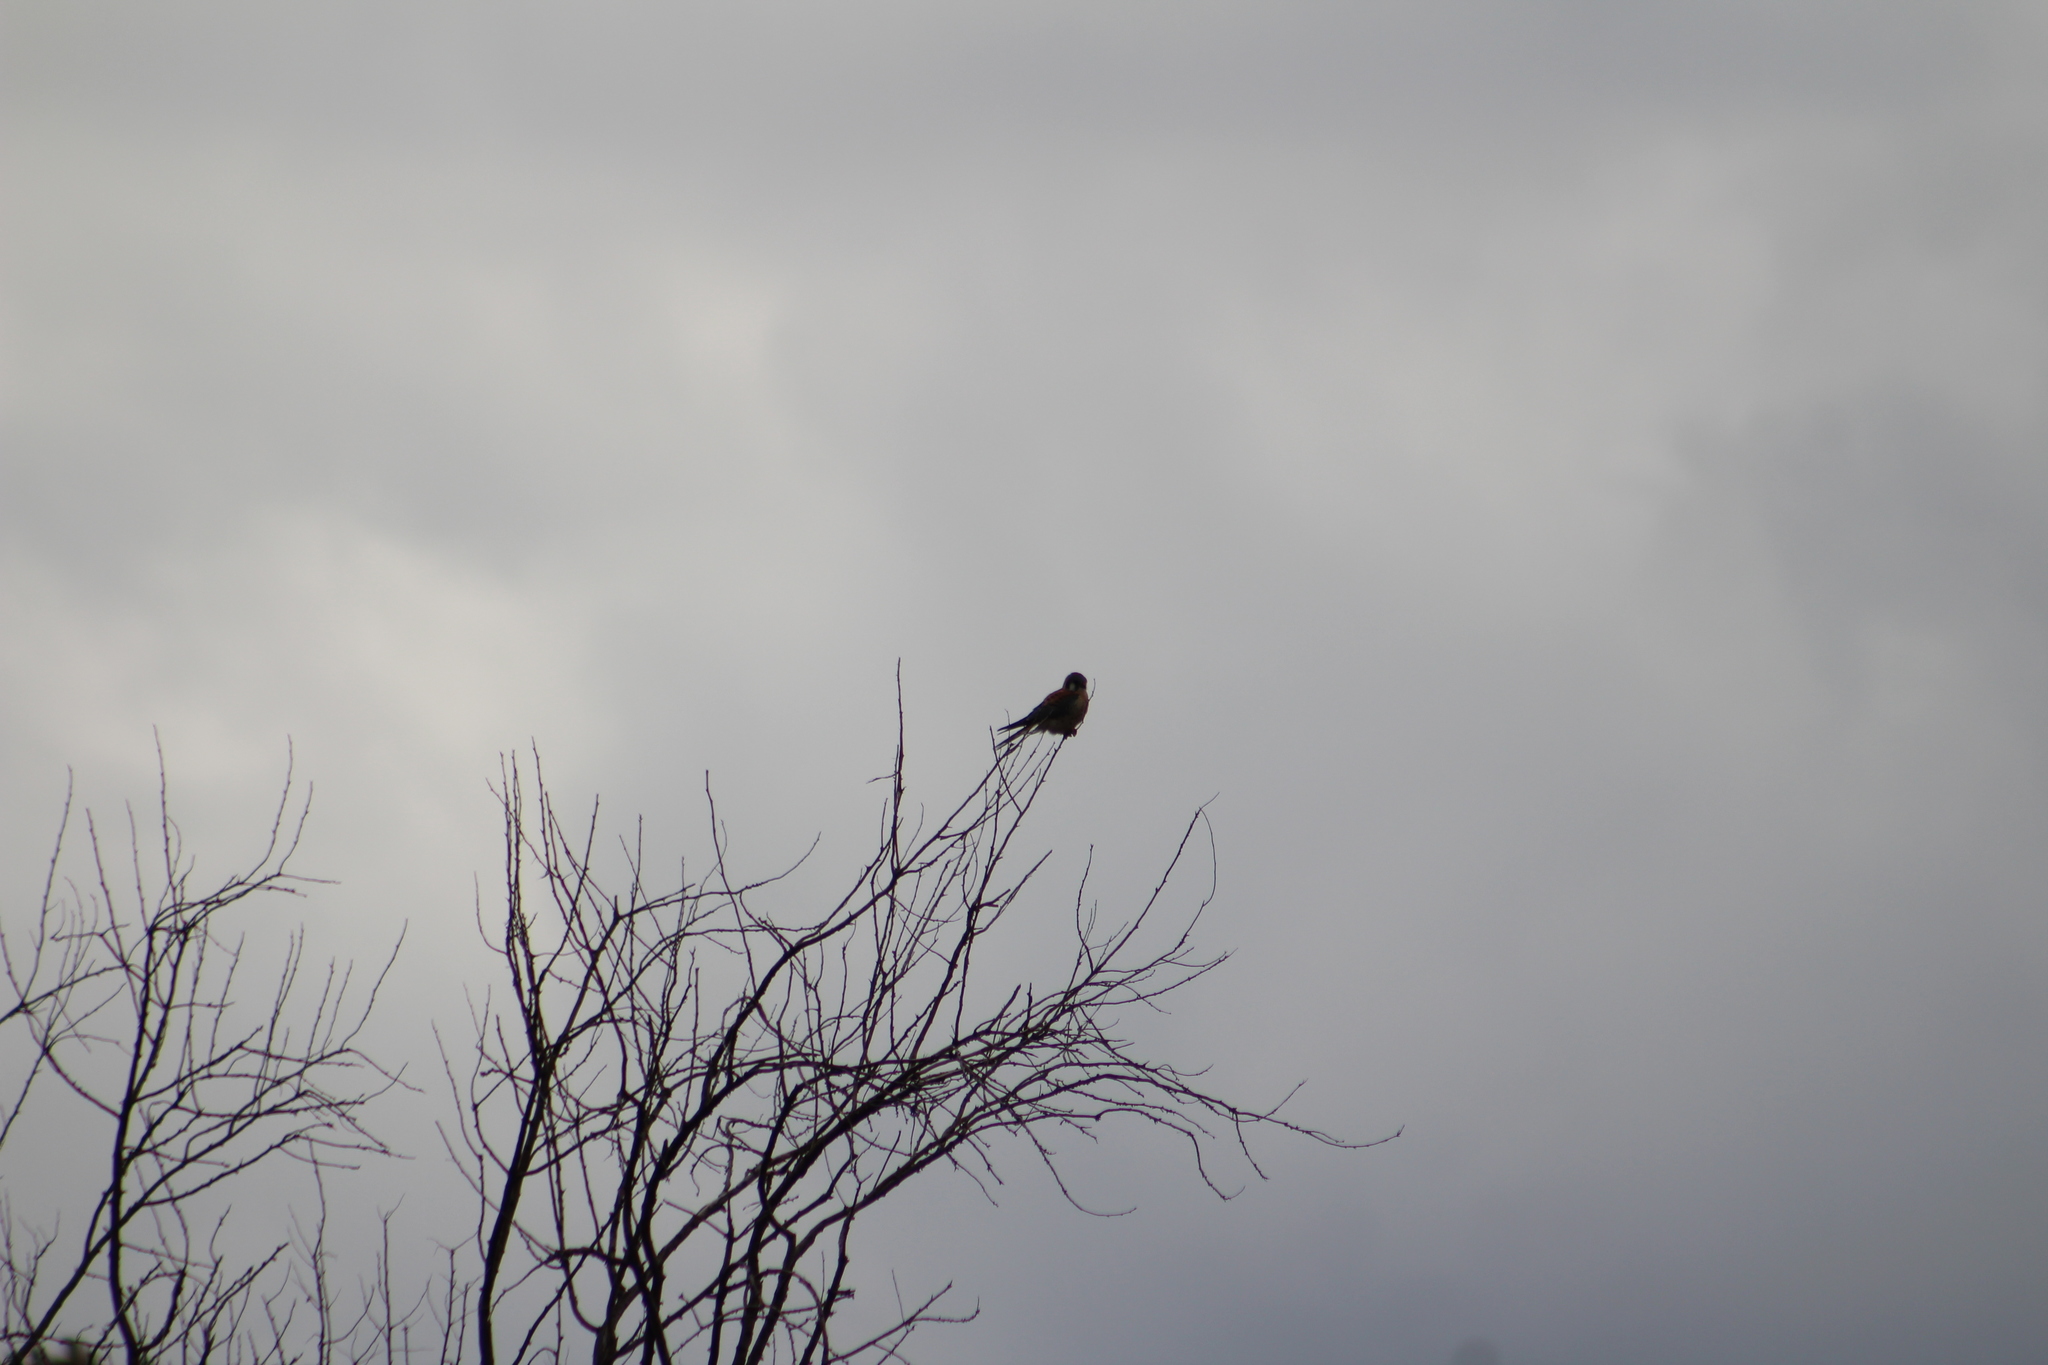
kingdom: Animalia
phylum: Chordata
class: Aves
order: Falconiformes
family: Falconidae
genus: Falco
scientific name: Falco sparverius
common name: American kestrel
